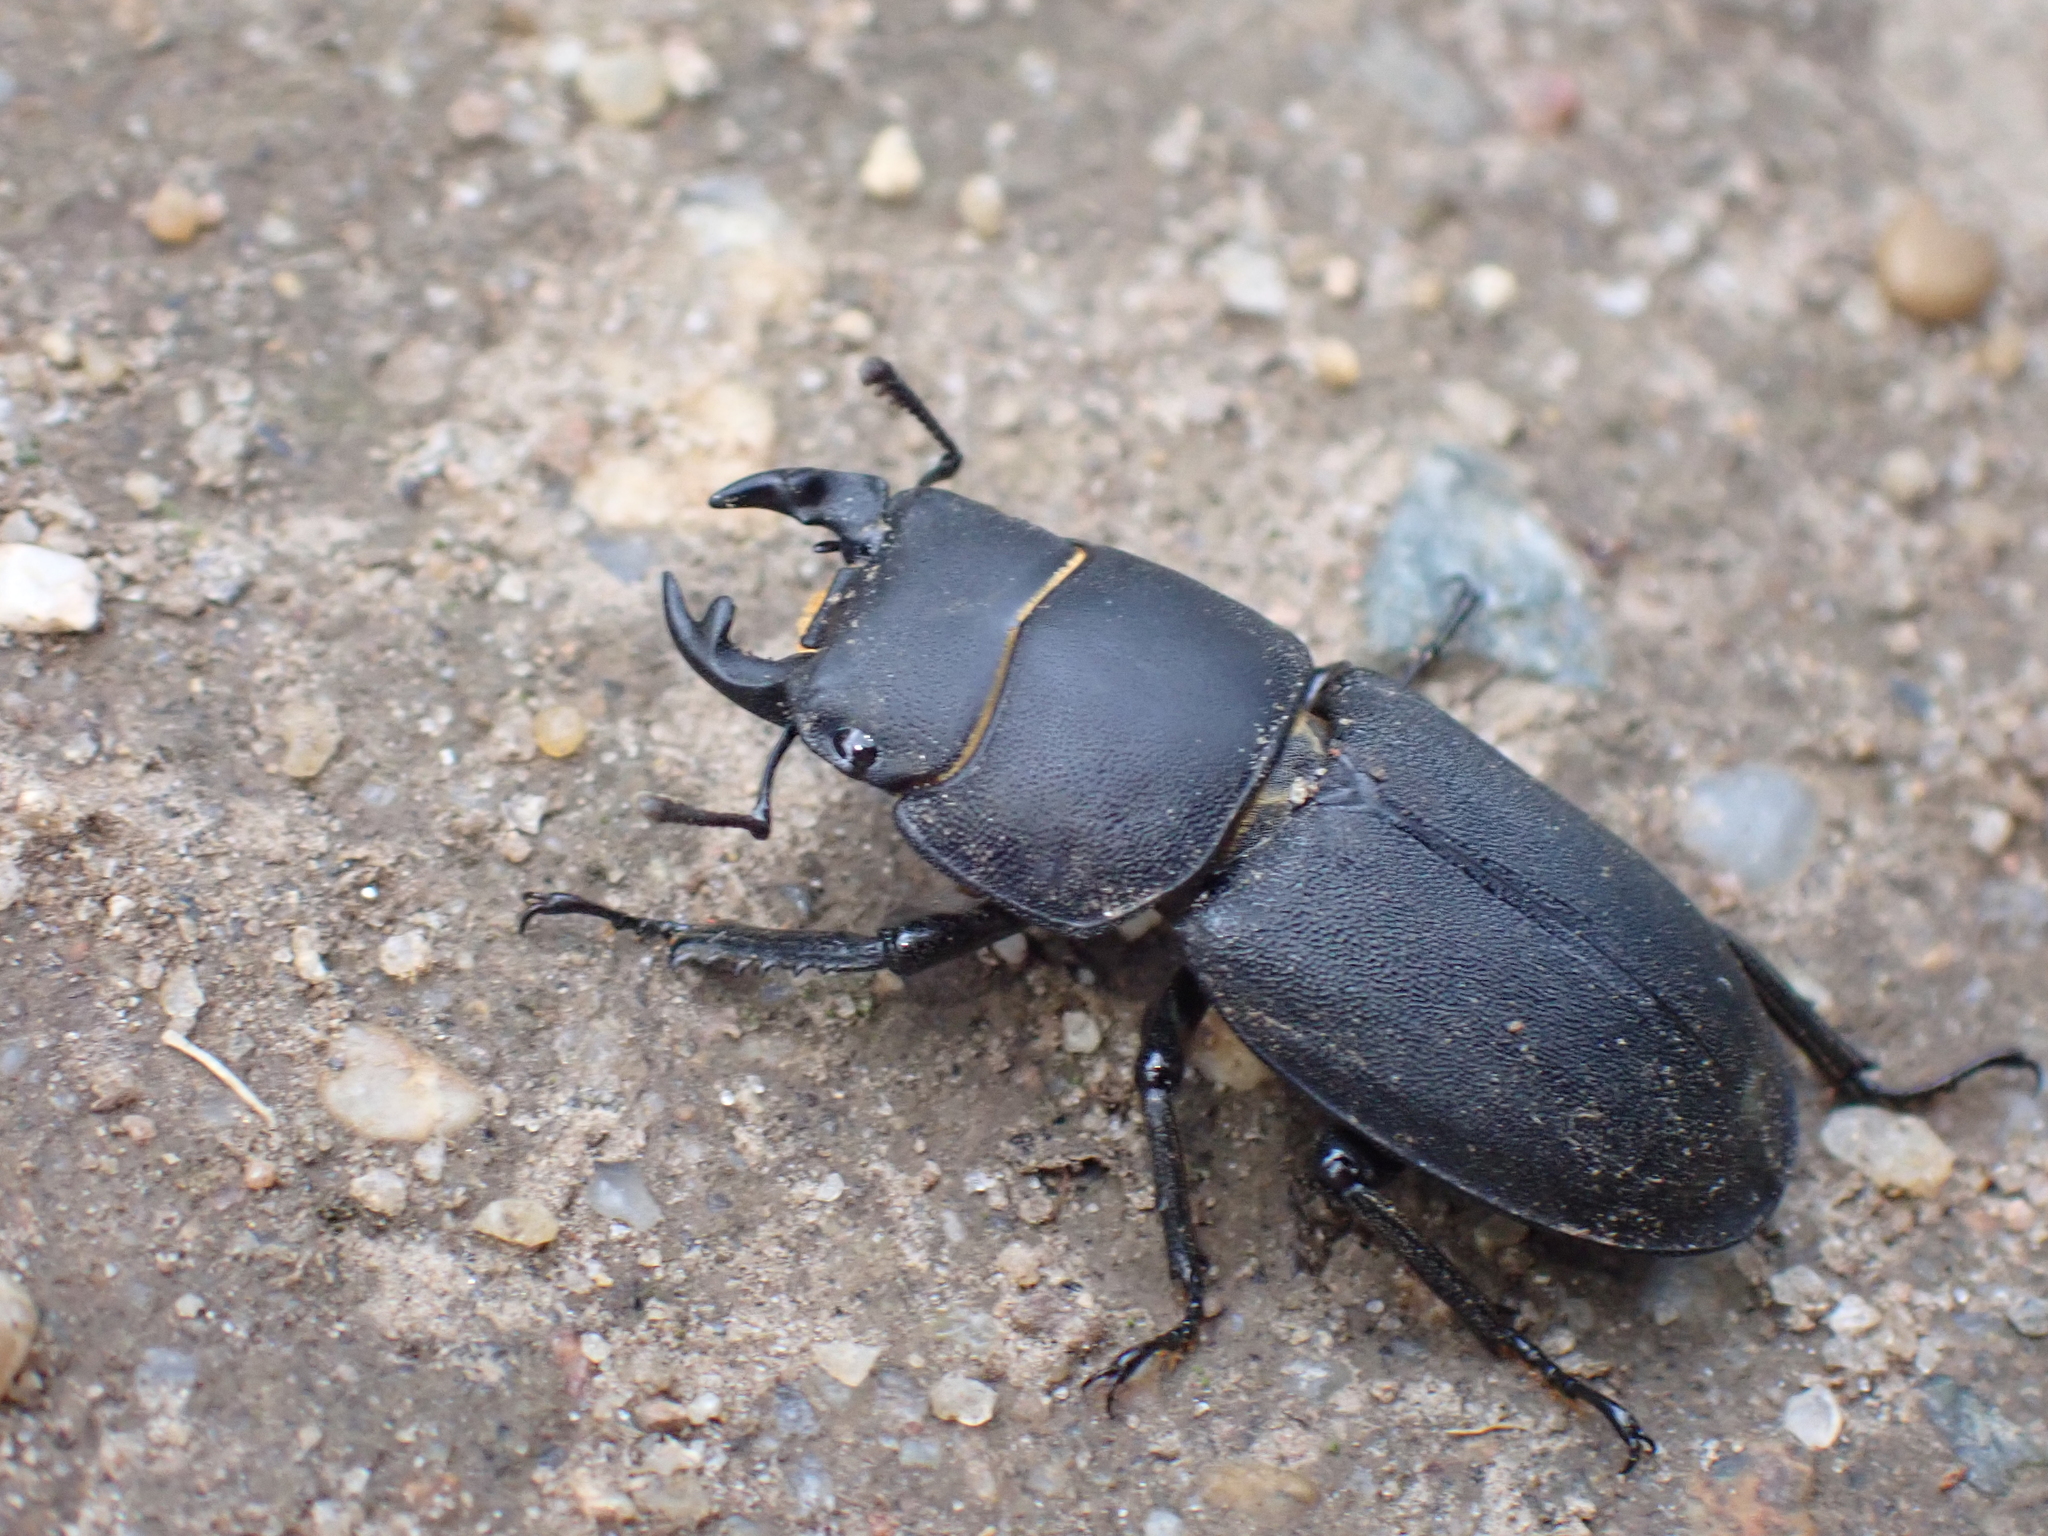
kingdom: Animalia
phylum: Arthropoda
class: Insecta
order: Coleoptera
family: Lucanidae
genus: Dorcus
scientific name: Dorcus parallelipipedus
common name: Lesser stag beetle
